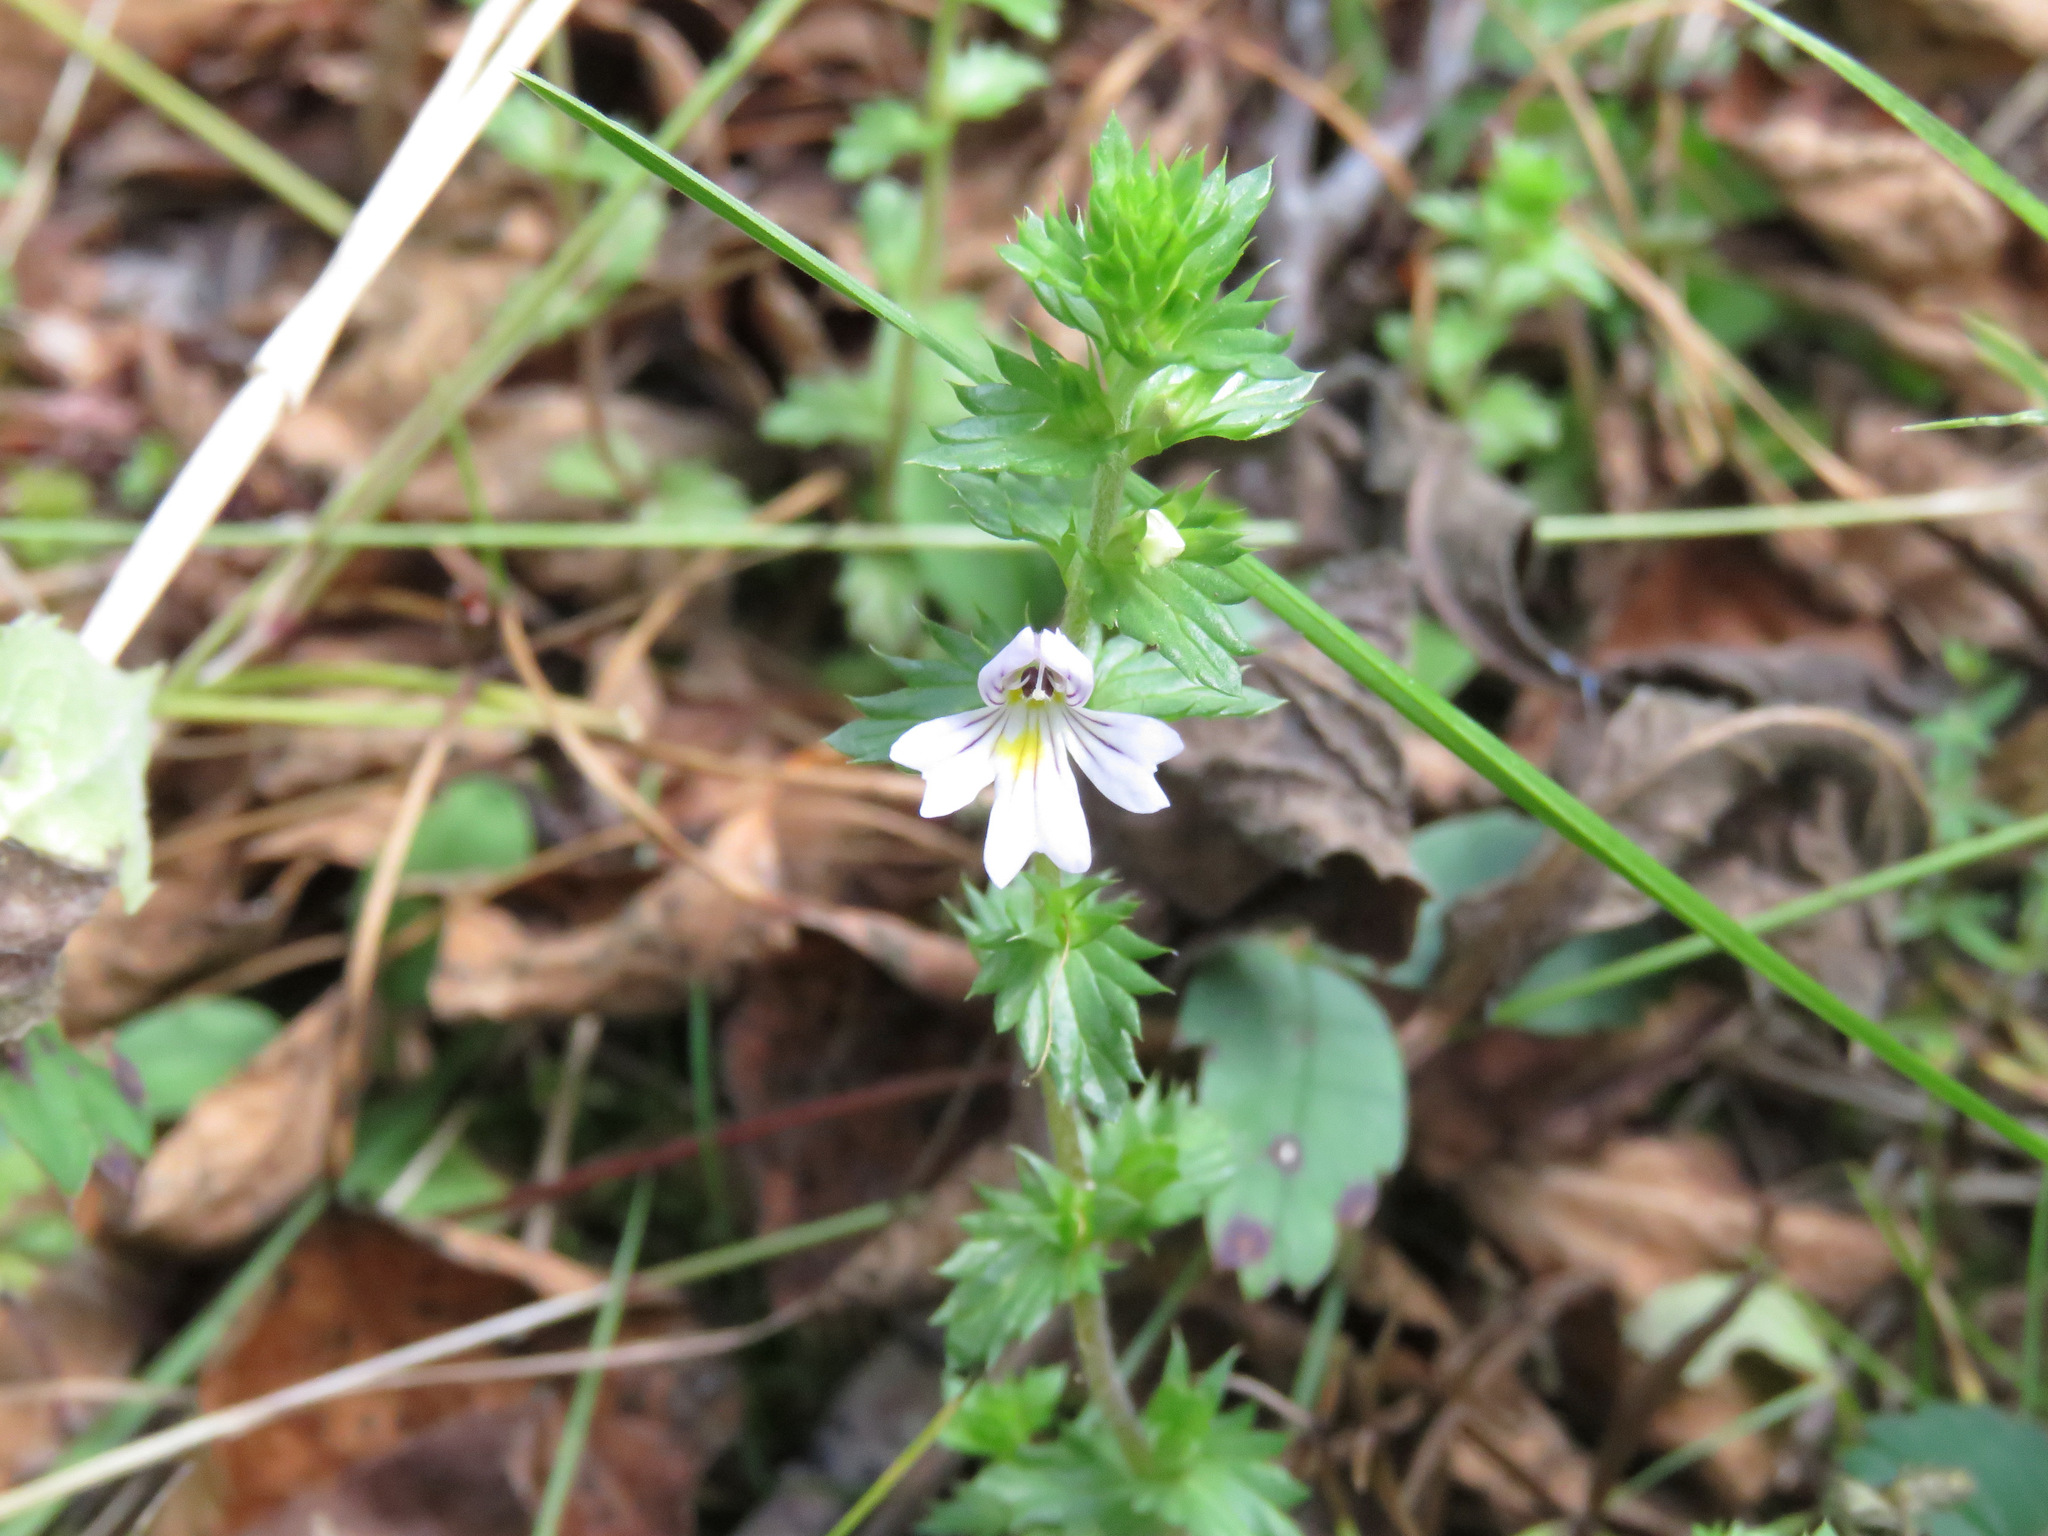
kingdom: Plantae
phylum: Tracheophyta
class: Magnoliopsida
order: Lamiales
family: Orobanchaceae
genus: Euphrasia
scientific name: Euphrasia nemorosa
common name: Common eyebright
